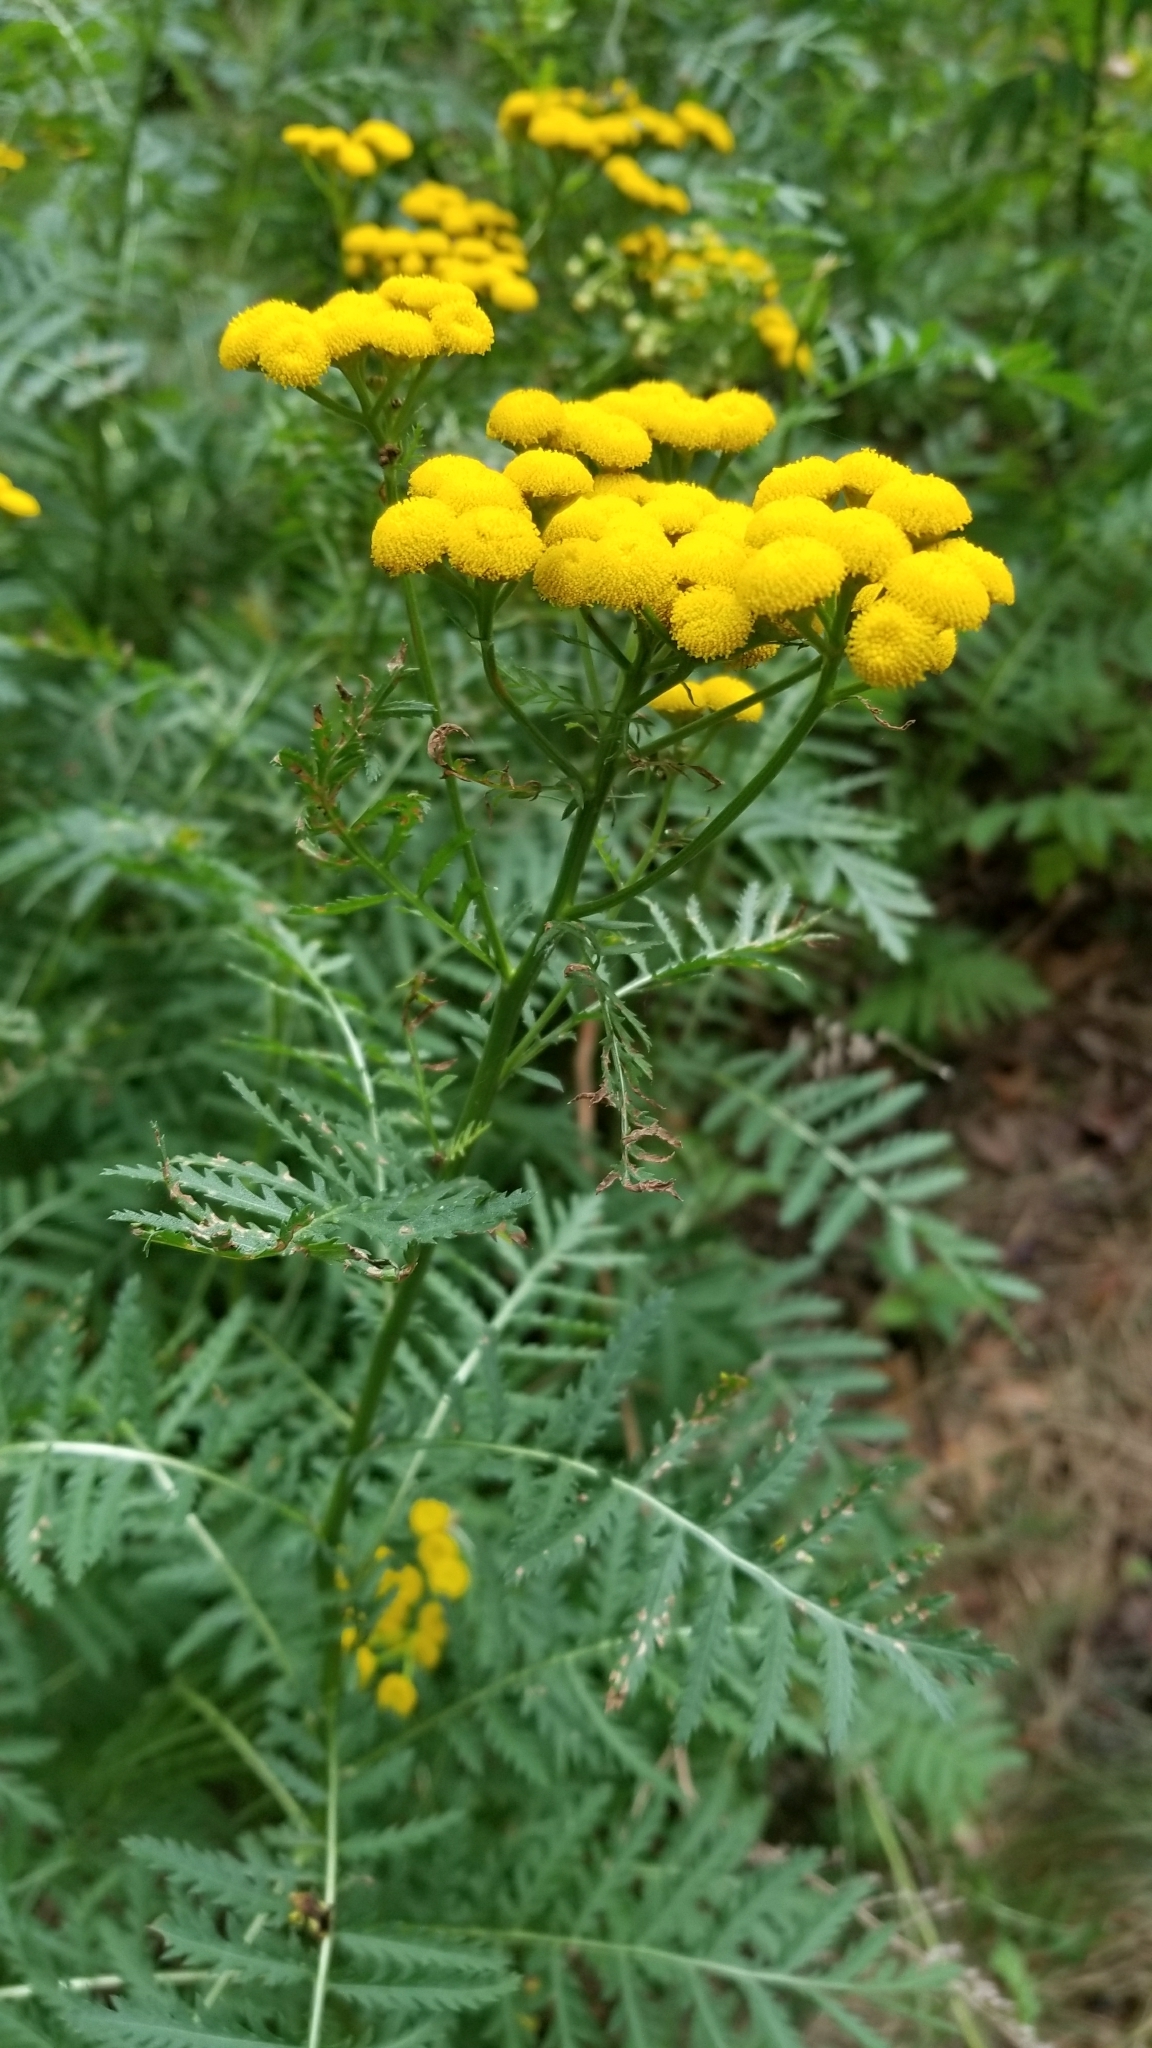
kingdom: Plantae
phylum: Tracheophyta
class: Magnoliopsida
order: Asterales
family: Asteraceae
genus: Tanacetum
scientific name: Tanacetum vulgare
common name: Common tansy
